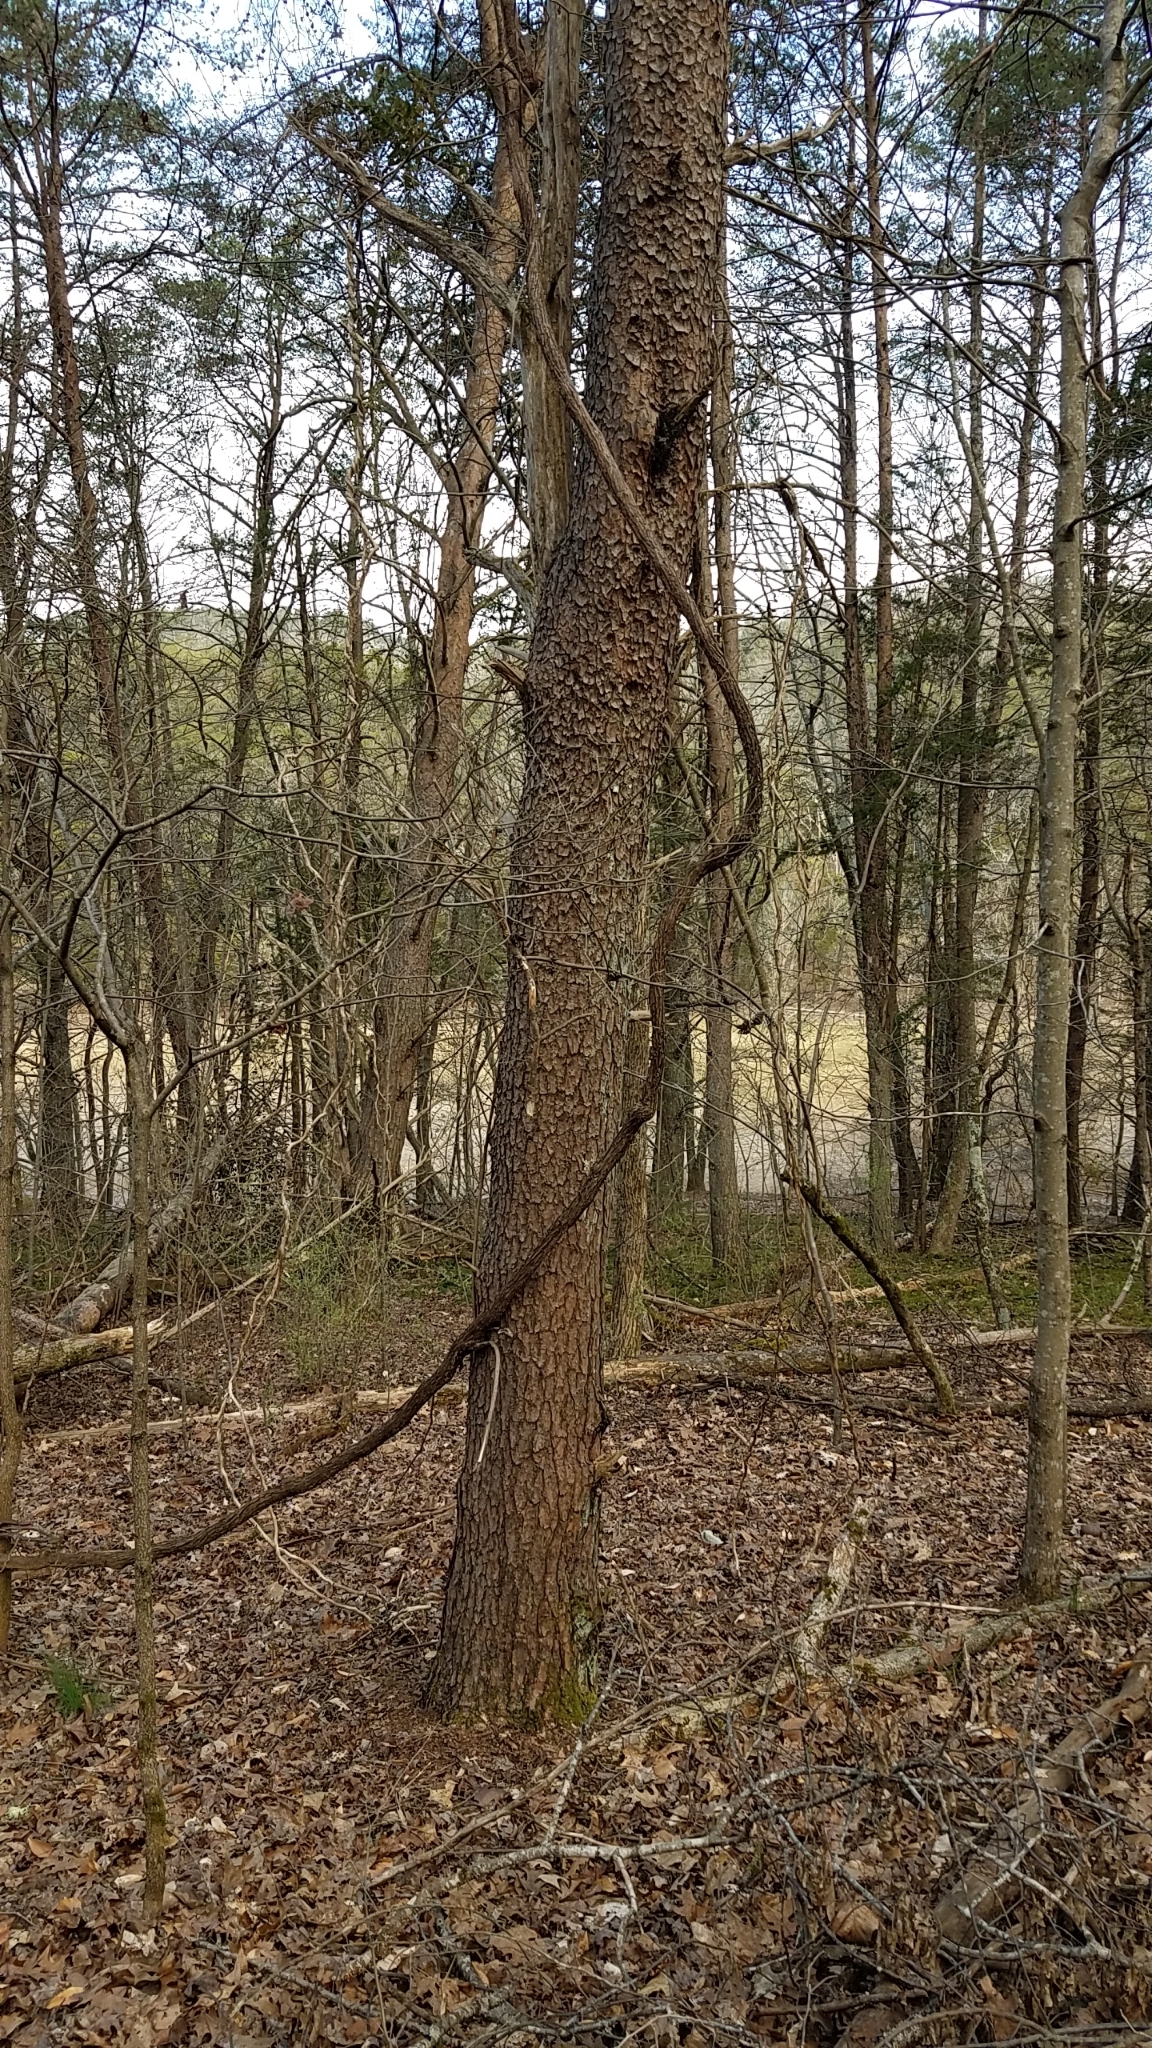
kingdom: Plantae
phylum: Tracheophyta
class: Pinopsida
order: Pinales
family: Pinaceae
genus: Pinus
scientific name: Pinus virginiana
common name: Scrub pine
